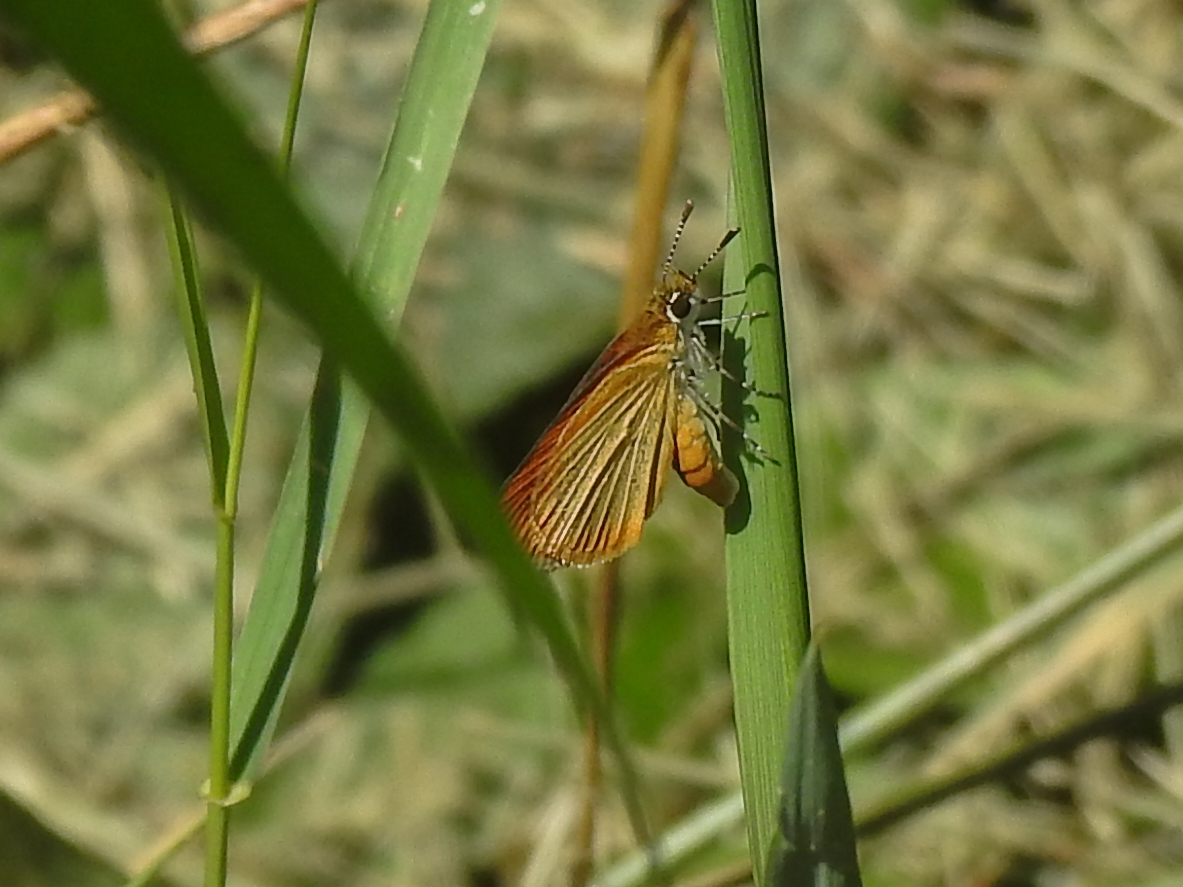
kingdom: Animalia
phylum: Arthropoda
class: Insecta
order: Lepidoptera
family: Hesperiidae
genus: Ancyloxypha
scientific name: Ancyloxypha numitor
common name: Least skipper
